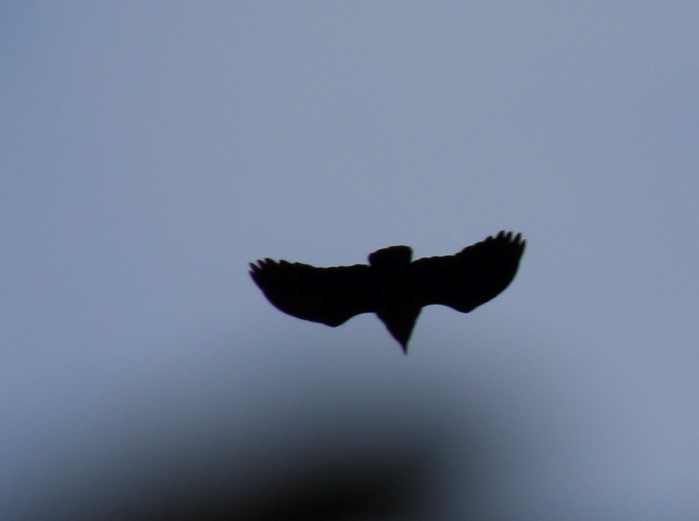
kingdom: Animalia
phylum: Chordata
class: Aves
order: Passeriformes
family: Corvidae
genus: Corvus
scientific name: Corvus albicollis
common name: White-necked raven
